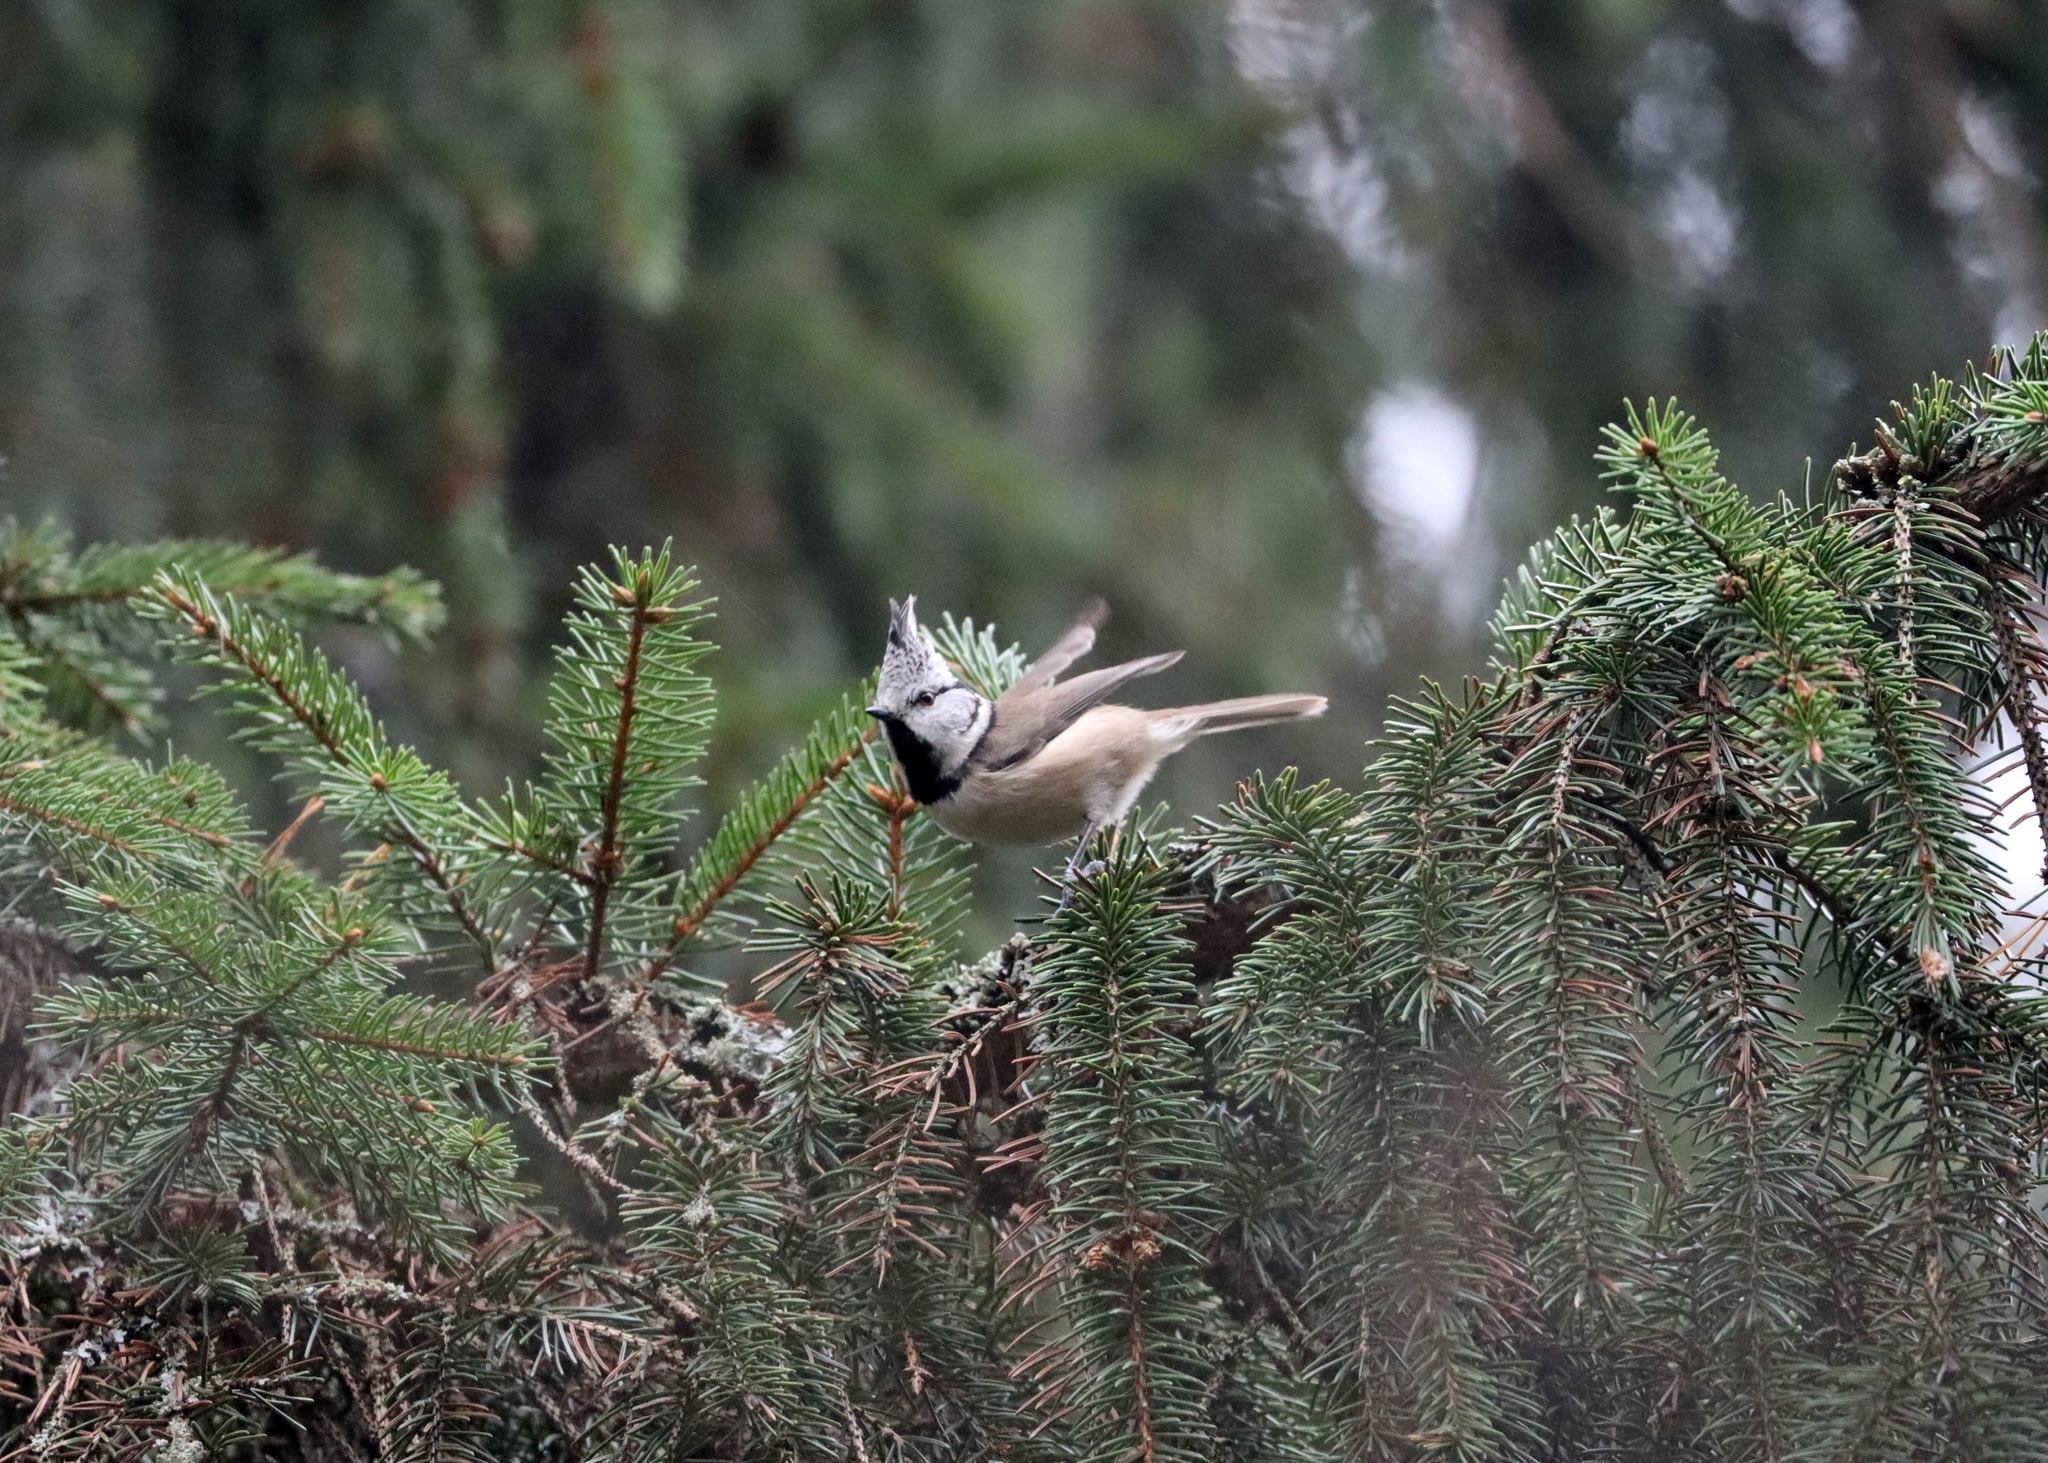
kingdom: Animalia
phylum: Chordata
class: Aves
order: Passeriformes
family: Paridae
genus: Lophophanes
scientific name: Lophophanes cristatus
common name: European crested tit
